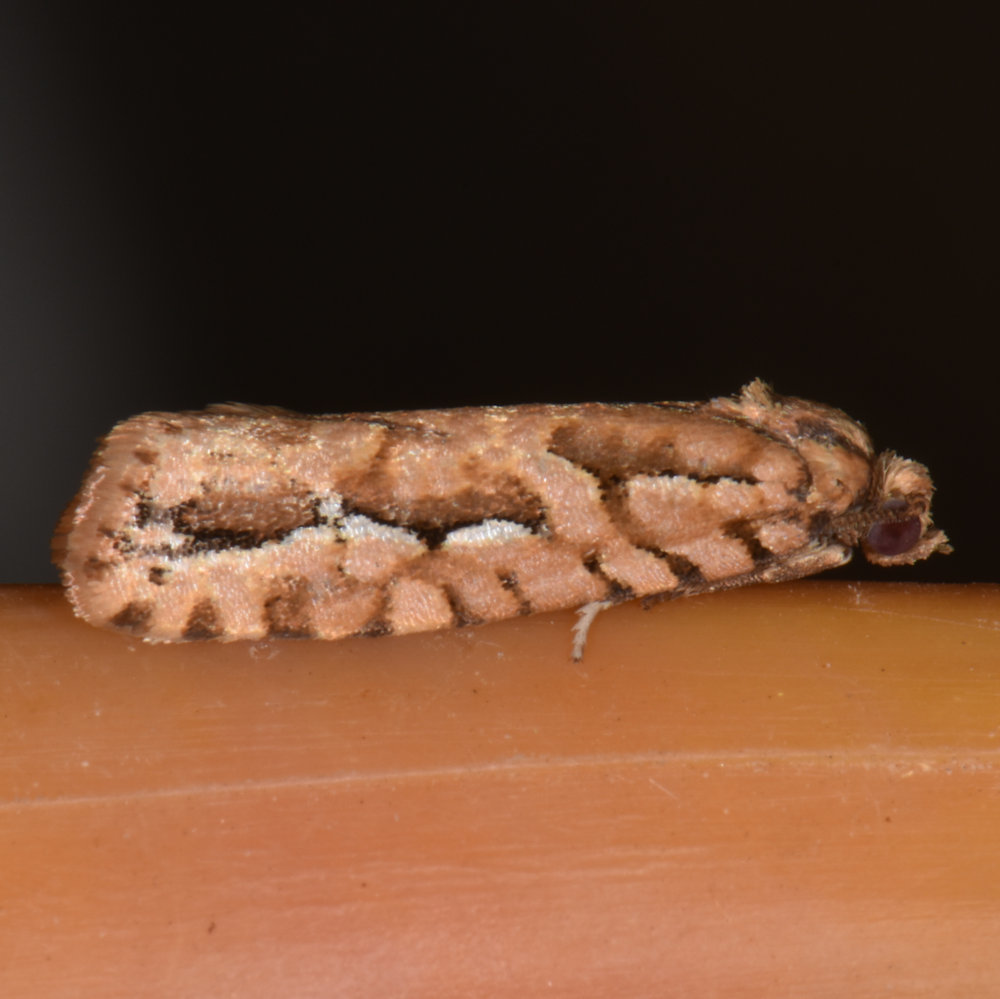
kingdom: Animalia
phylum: Arthropoda
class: Insecta
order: Lepidoptera
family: Tortricidae
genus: Diedra
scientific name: Diedra cockerellana
